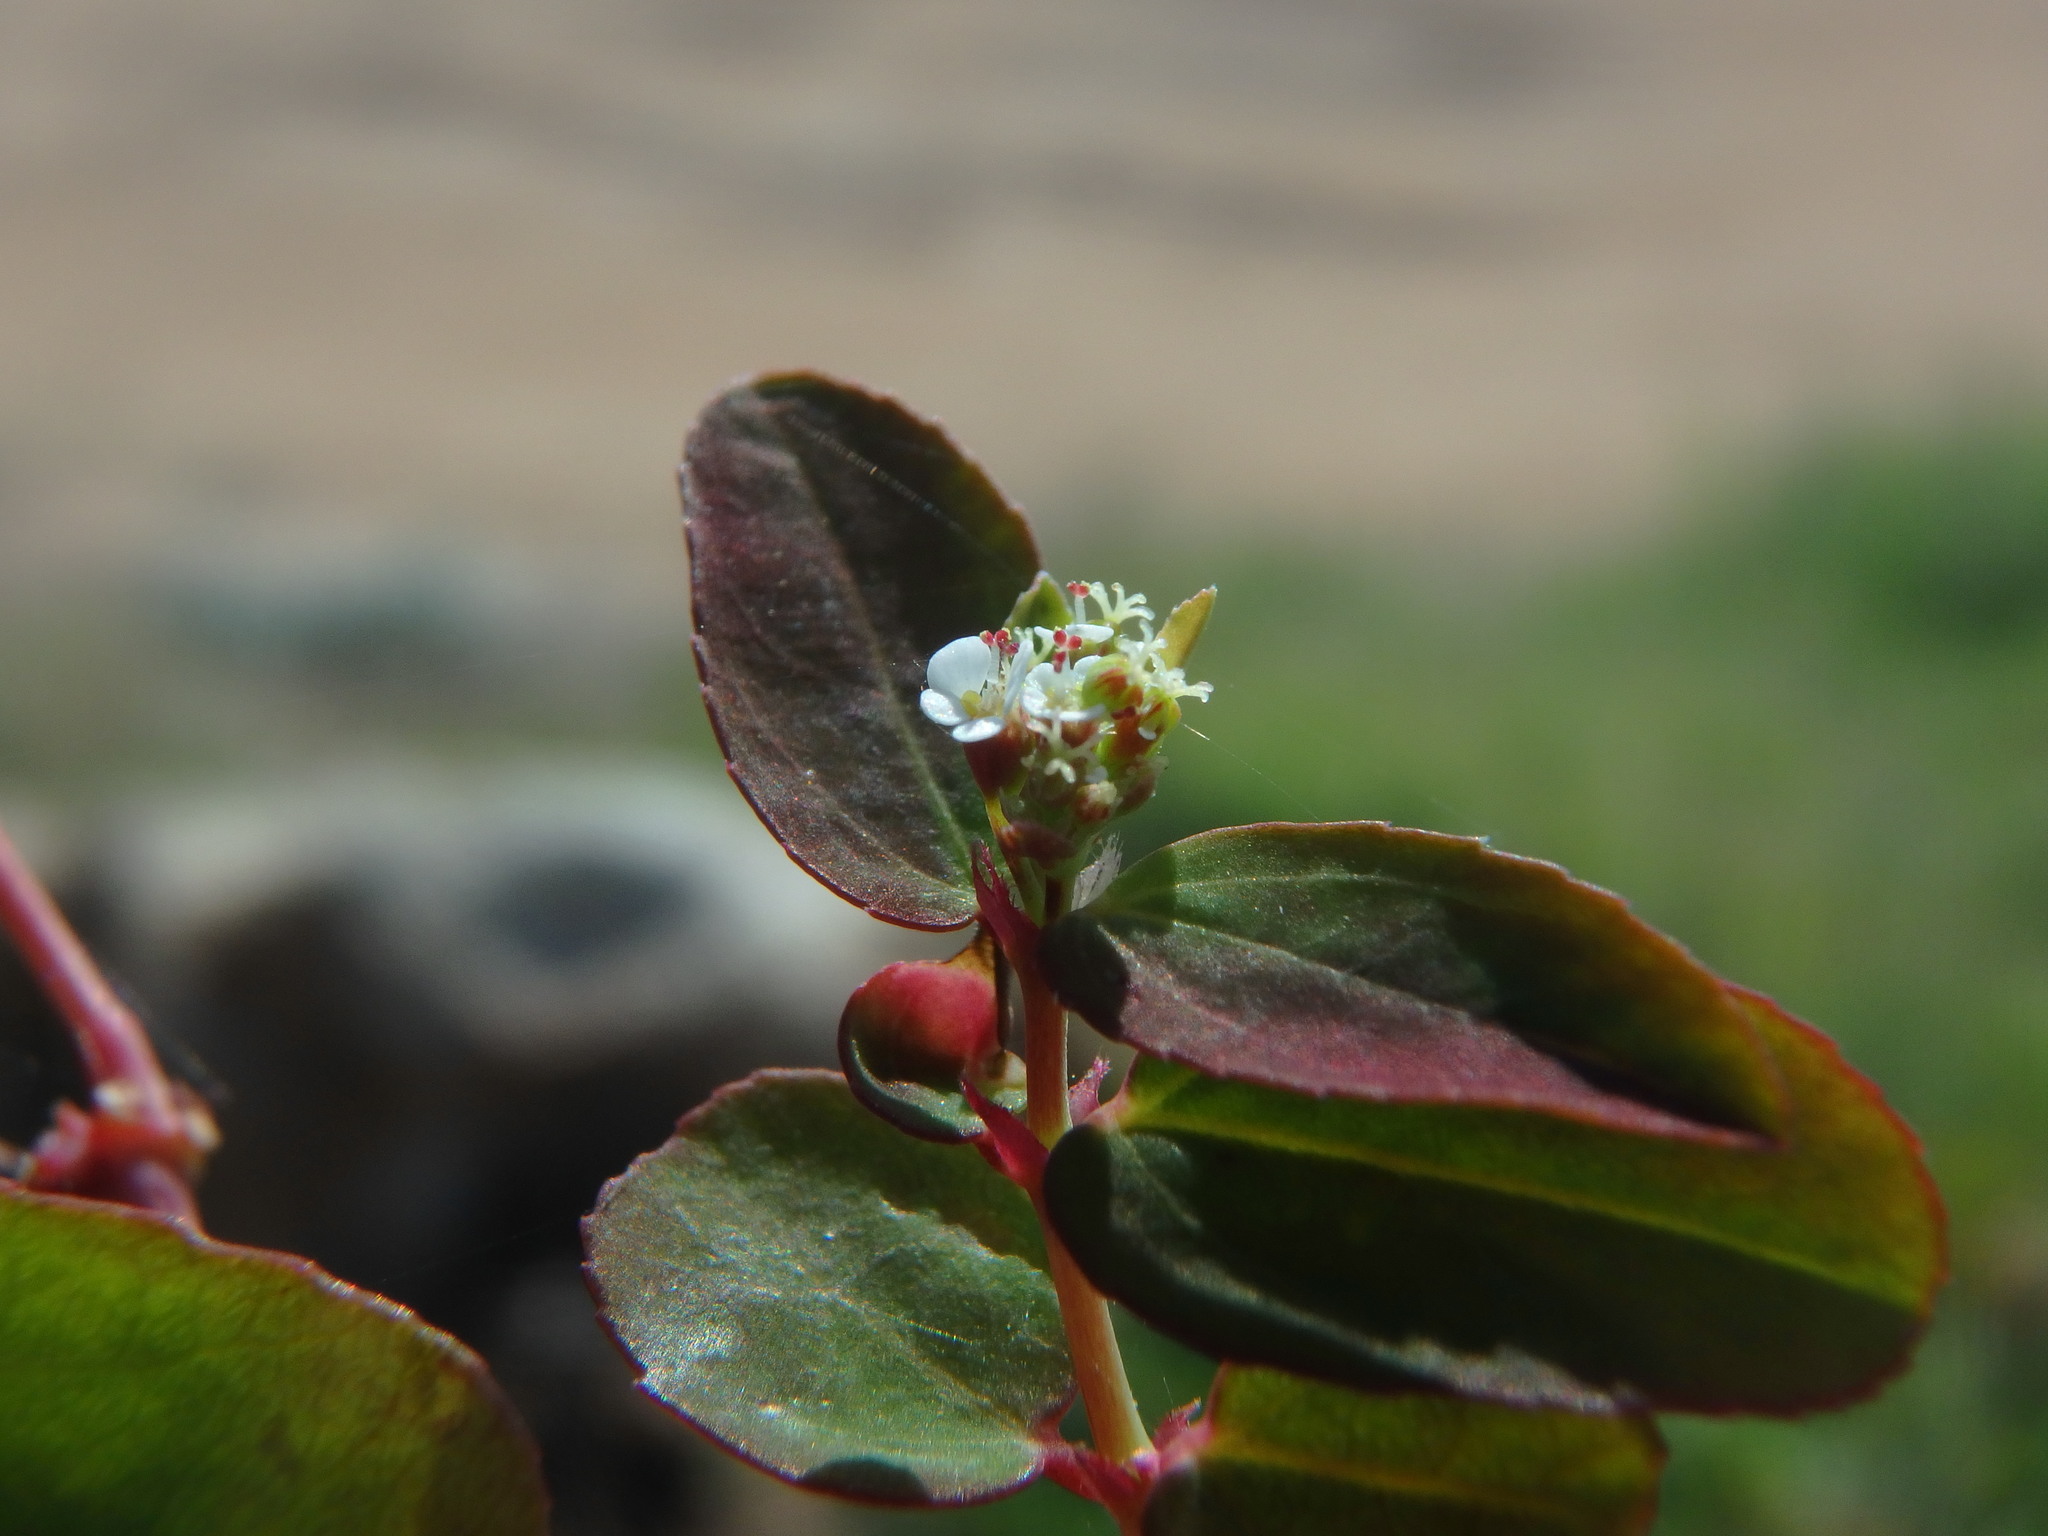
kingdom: Plantae
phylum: Tracheophyta
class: Magnoliopsida
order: Malpighiales
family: Euphorbiaceae
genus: Euphorbia
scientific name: Euphorbia hypericifolia
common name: Graceful sandmat
